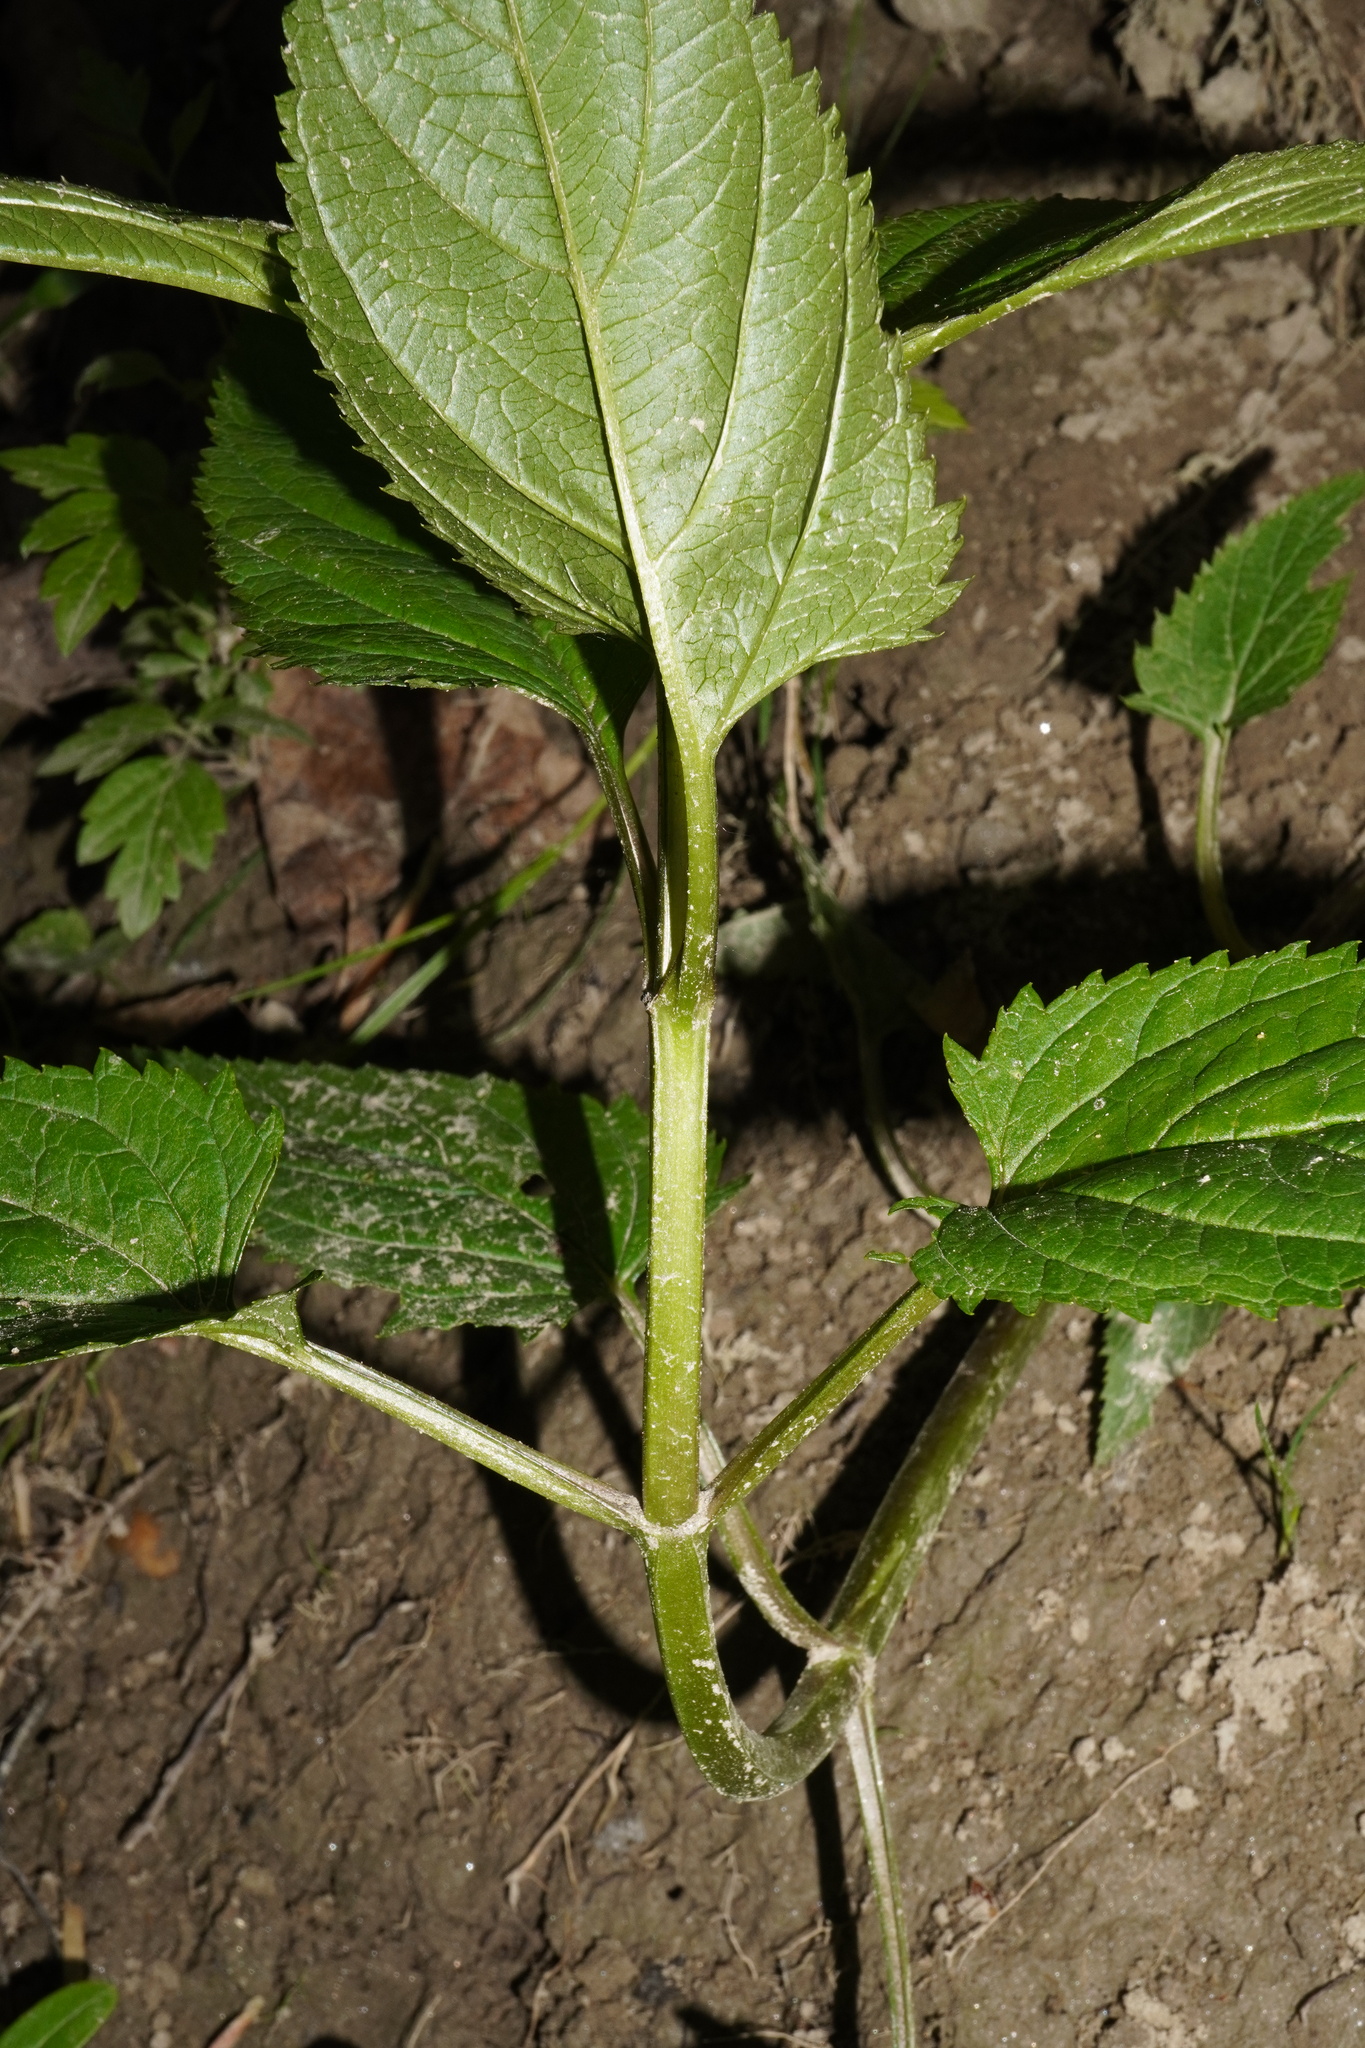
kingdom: Plantae
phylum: Tracheophyta
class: Magnoliopsida
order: Lamiales
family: Scrophulariaceae
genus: Scrophularia
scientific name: Scrophularia nodosa
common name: Common figwort
